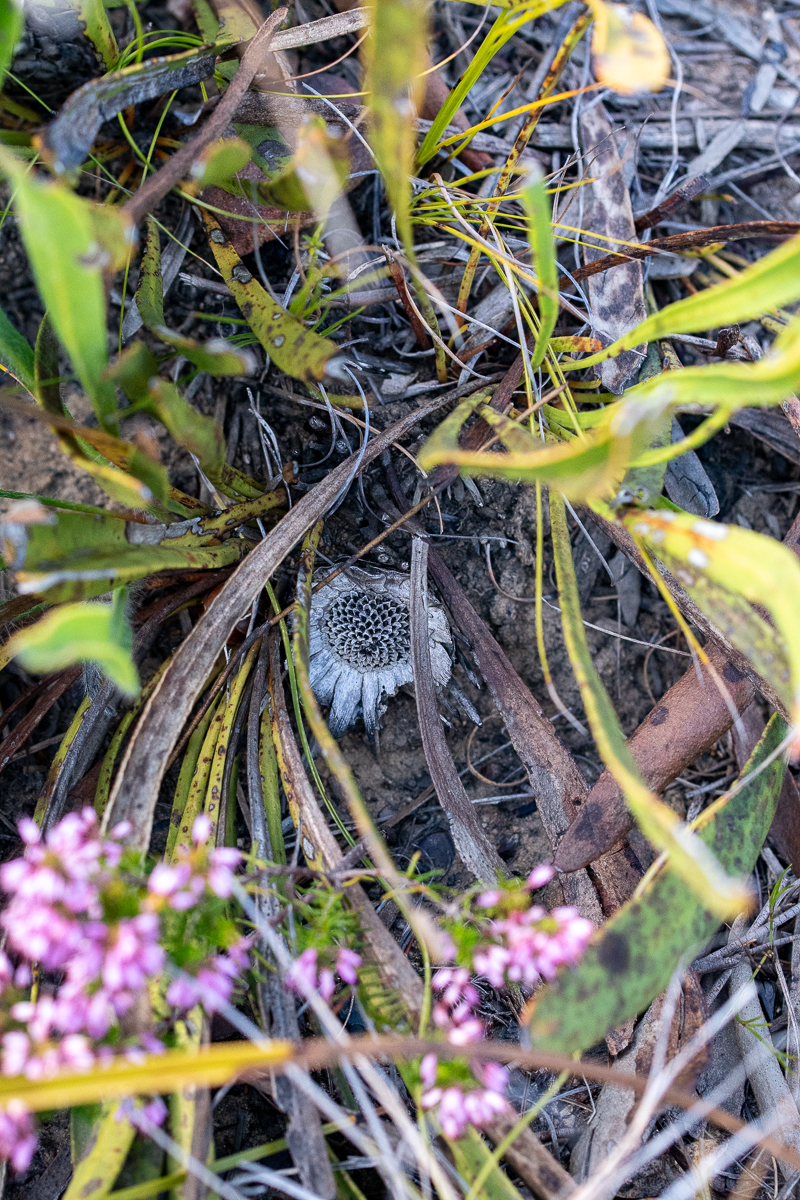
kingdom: Plantae
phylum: Tracheophyta
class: Magnoliopsida
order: Proteales
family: Proteaceae
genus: Protea
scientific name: Protea scabra
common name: Sandpaper-leaf sugarbush
